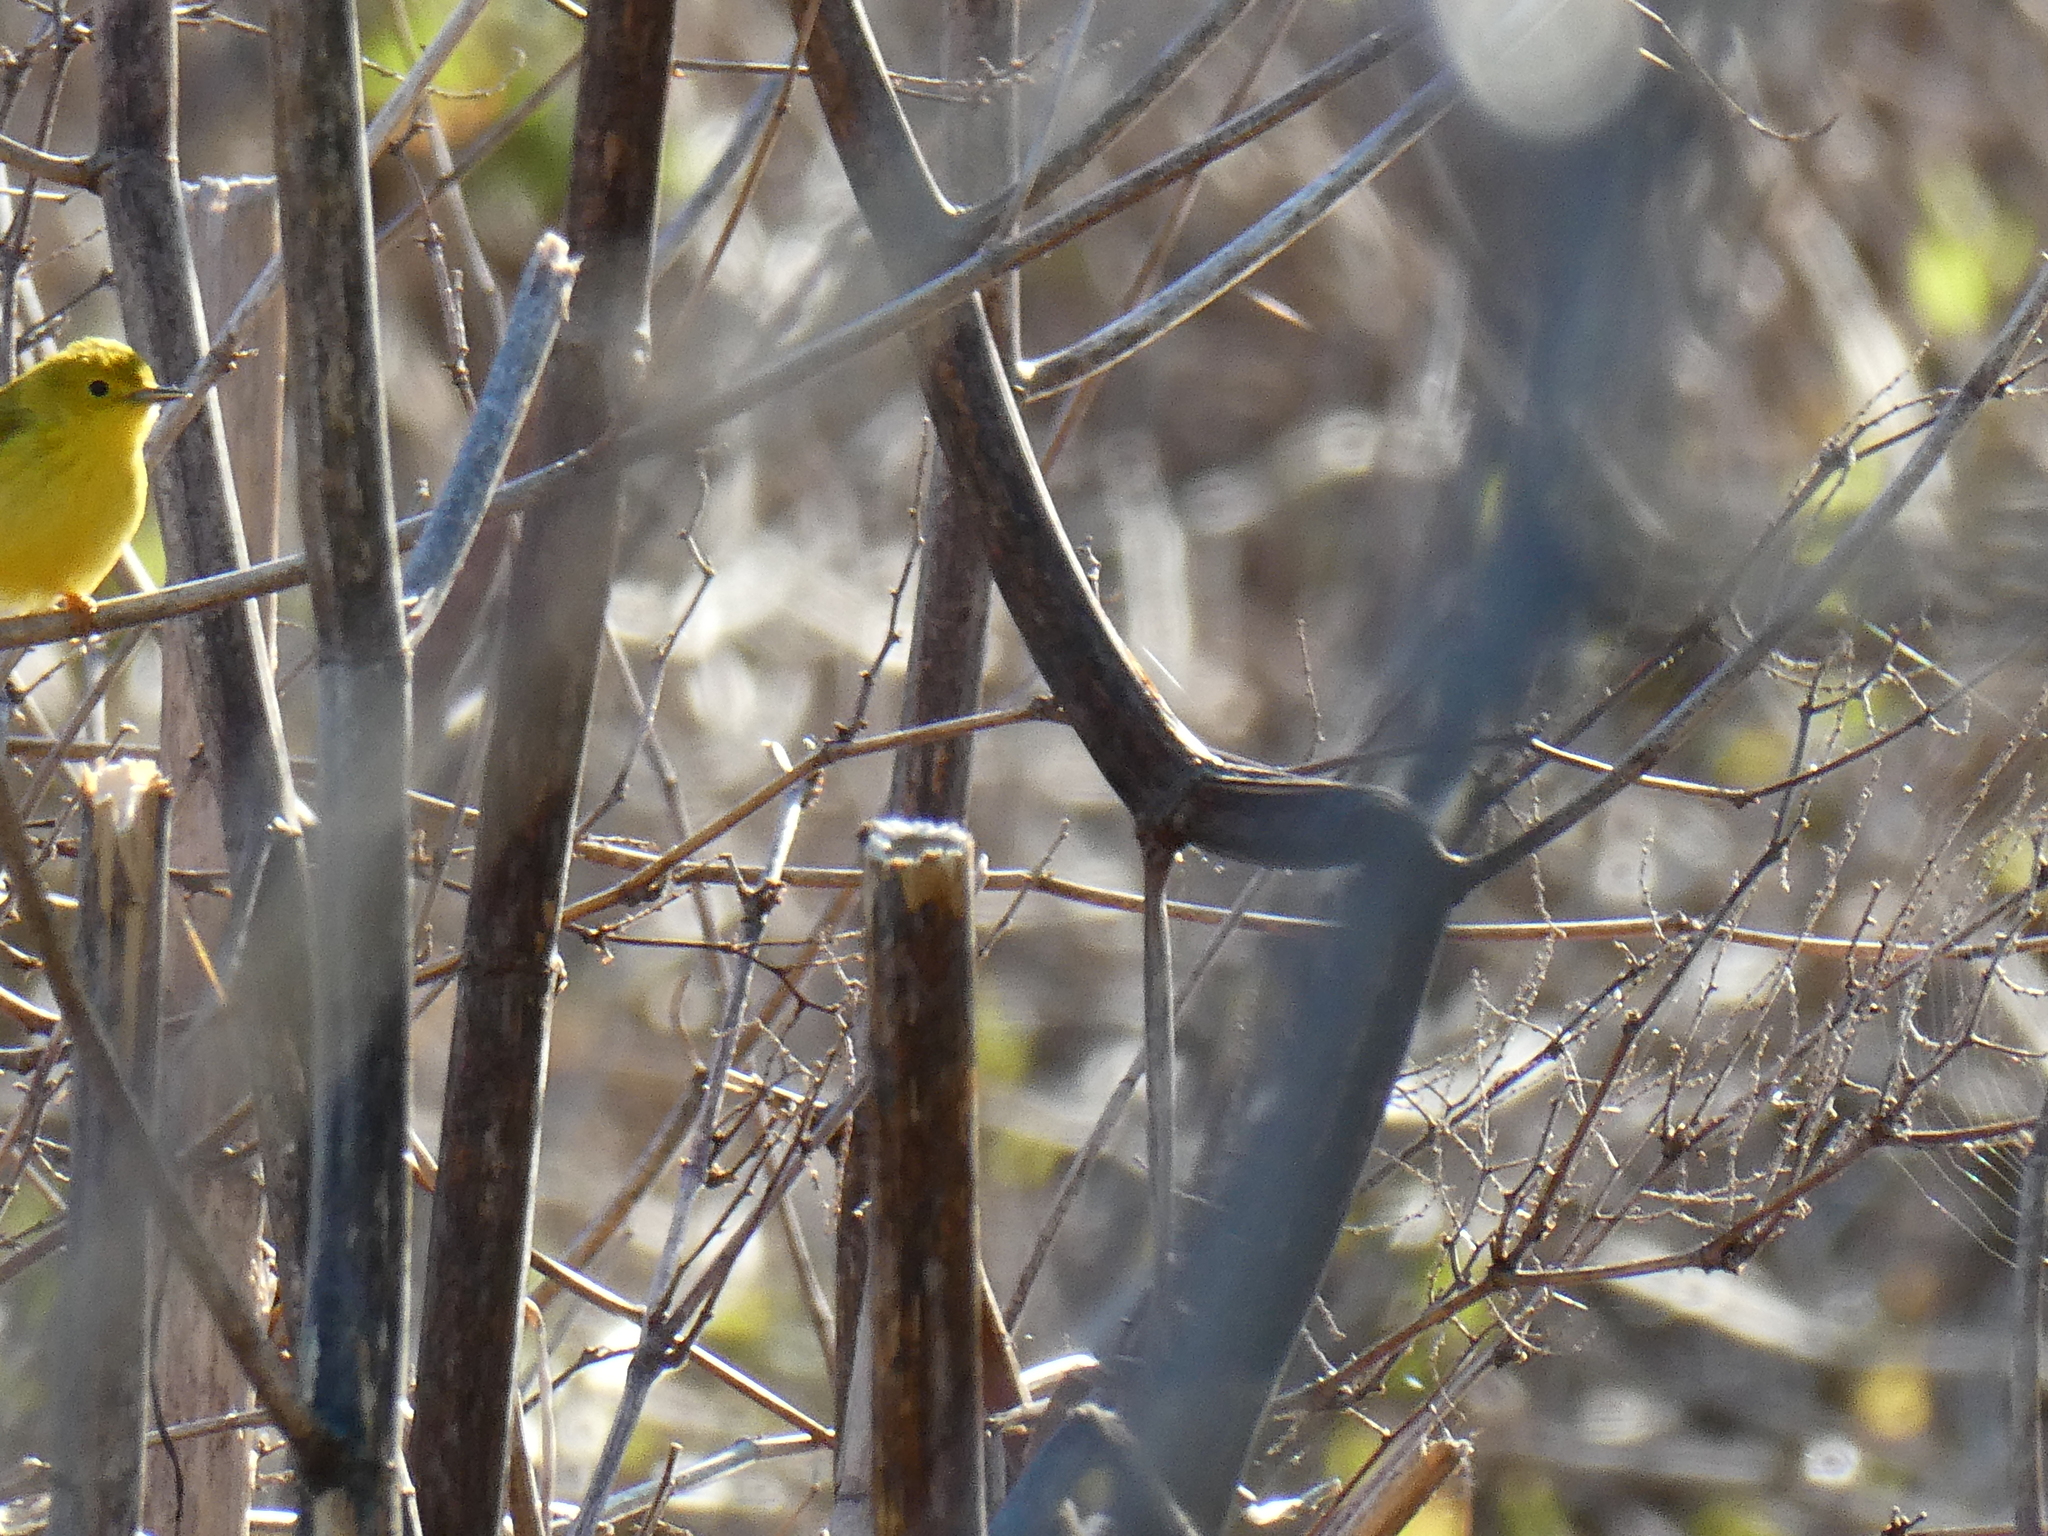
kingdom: Animalia
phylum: Chordata
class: Aves
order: Passeriformes
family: Parulidae
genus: Setophaga
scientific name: Setophaga petechia
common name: Yellow warbler
